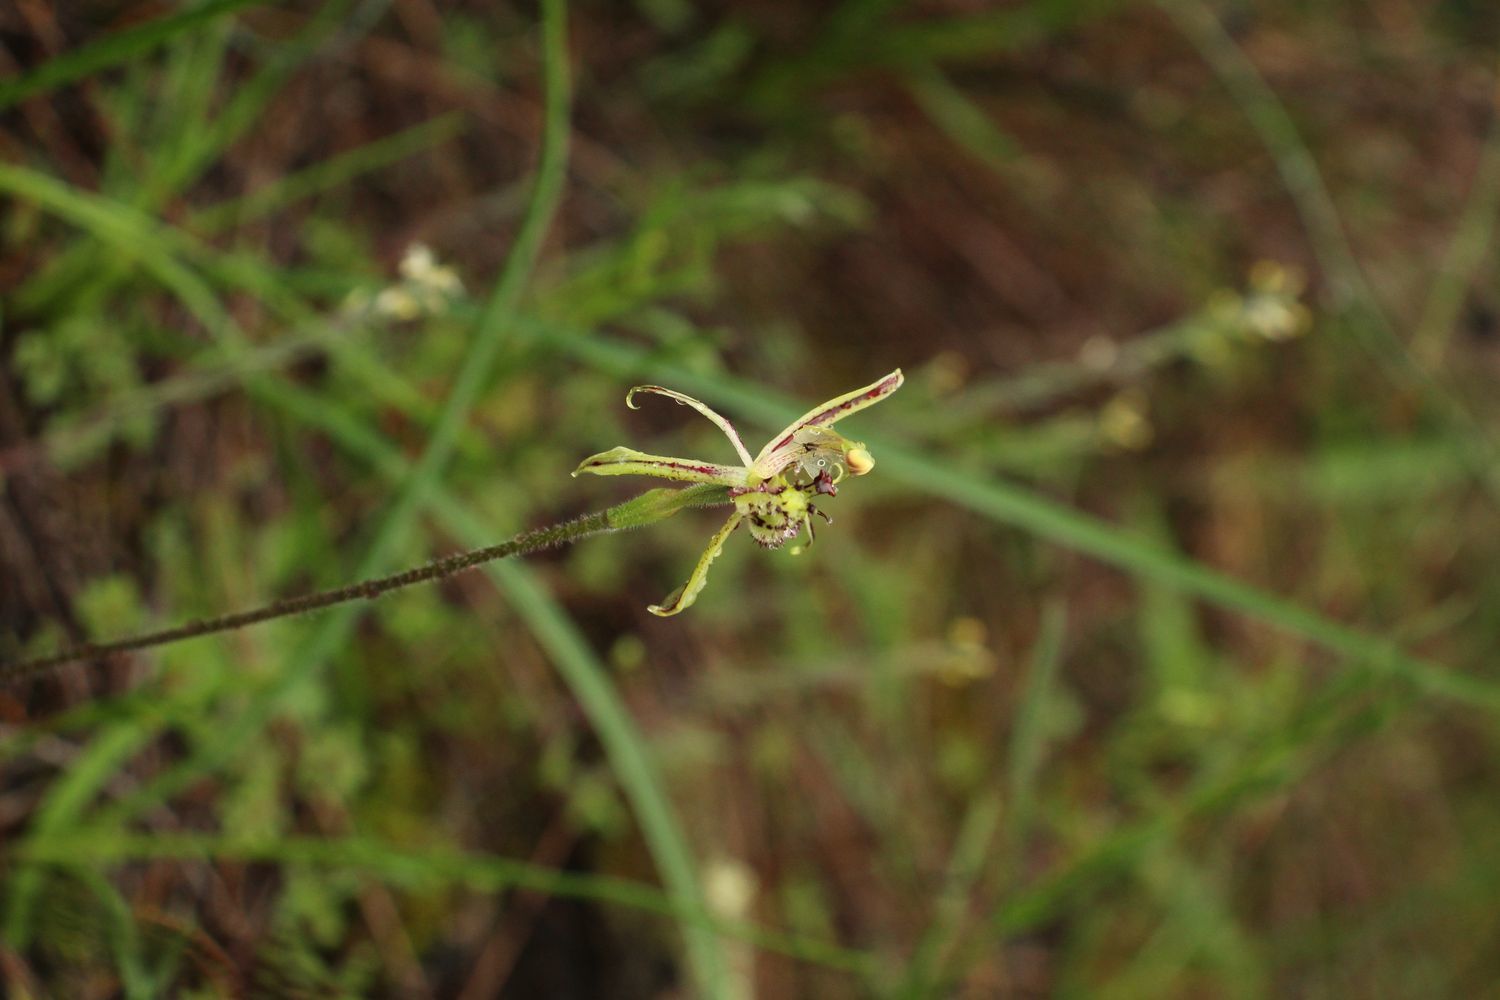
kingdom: Plantae
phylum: Tracheophyta
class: Liliopsida
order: Asparagales
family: Orchidaceae
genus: Caladenia
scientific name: Caladenia barbarossa
